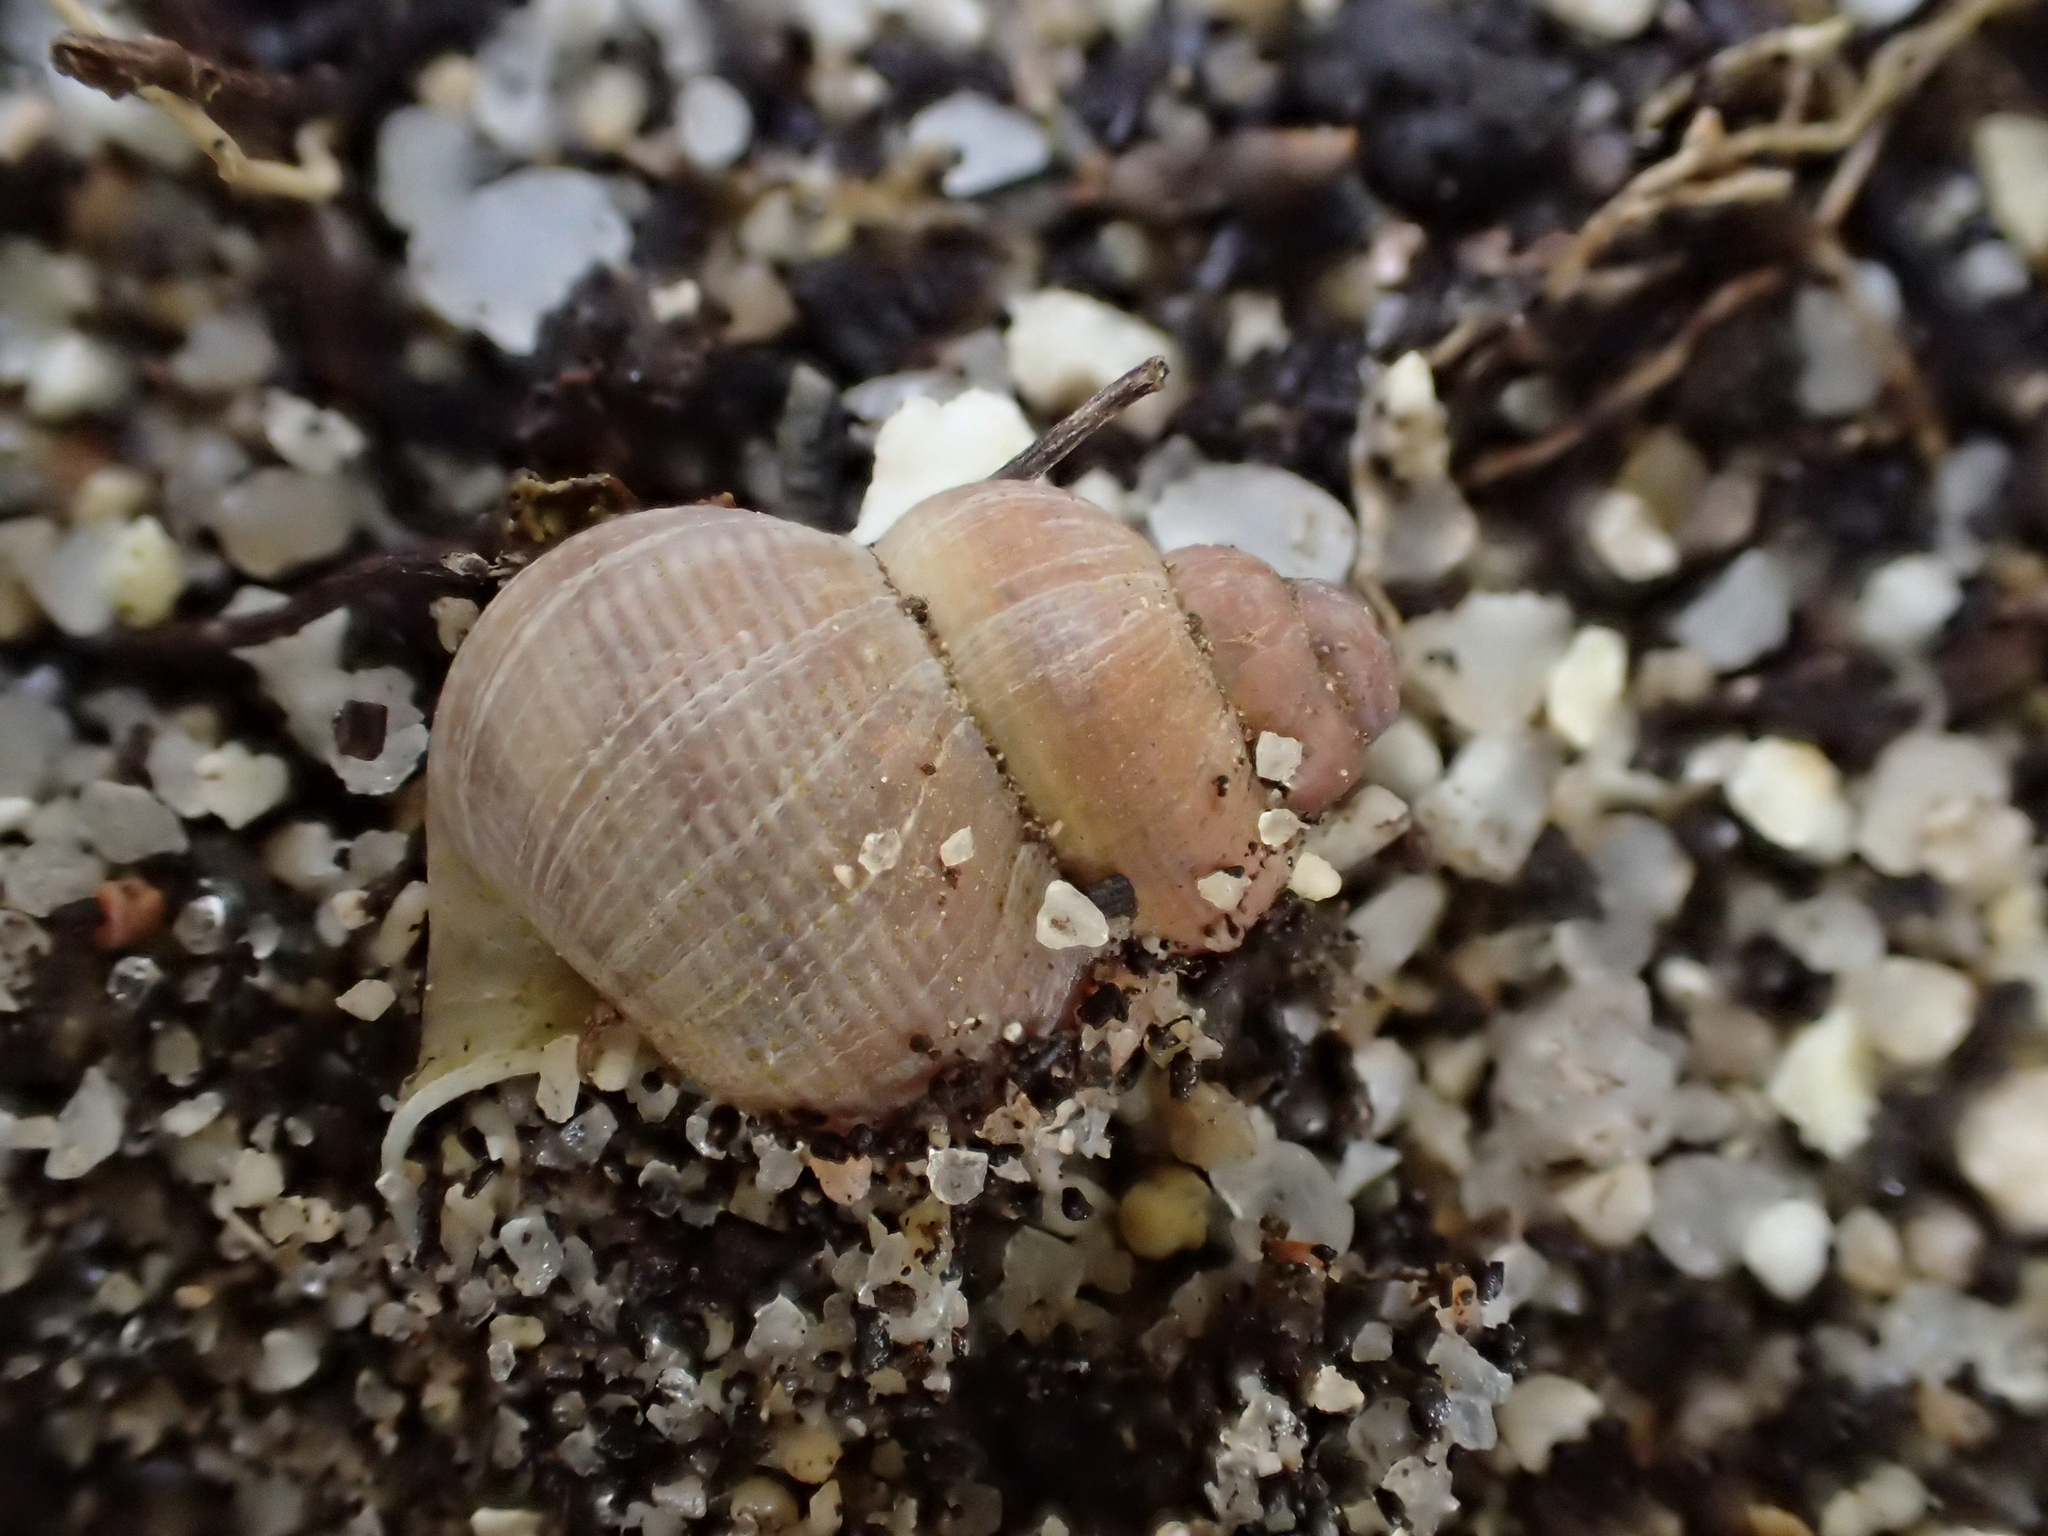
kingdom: Animalia
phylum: Mollusca
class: Gastropoda
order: Littorinimorpha
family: Pomatiidae
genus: Pomatias
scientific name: Pomatias elegans
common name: Red-mouthed snail
